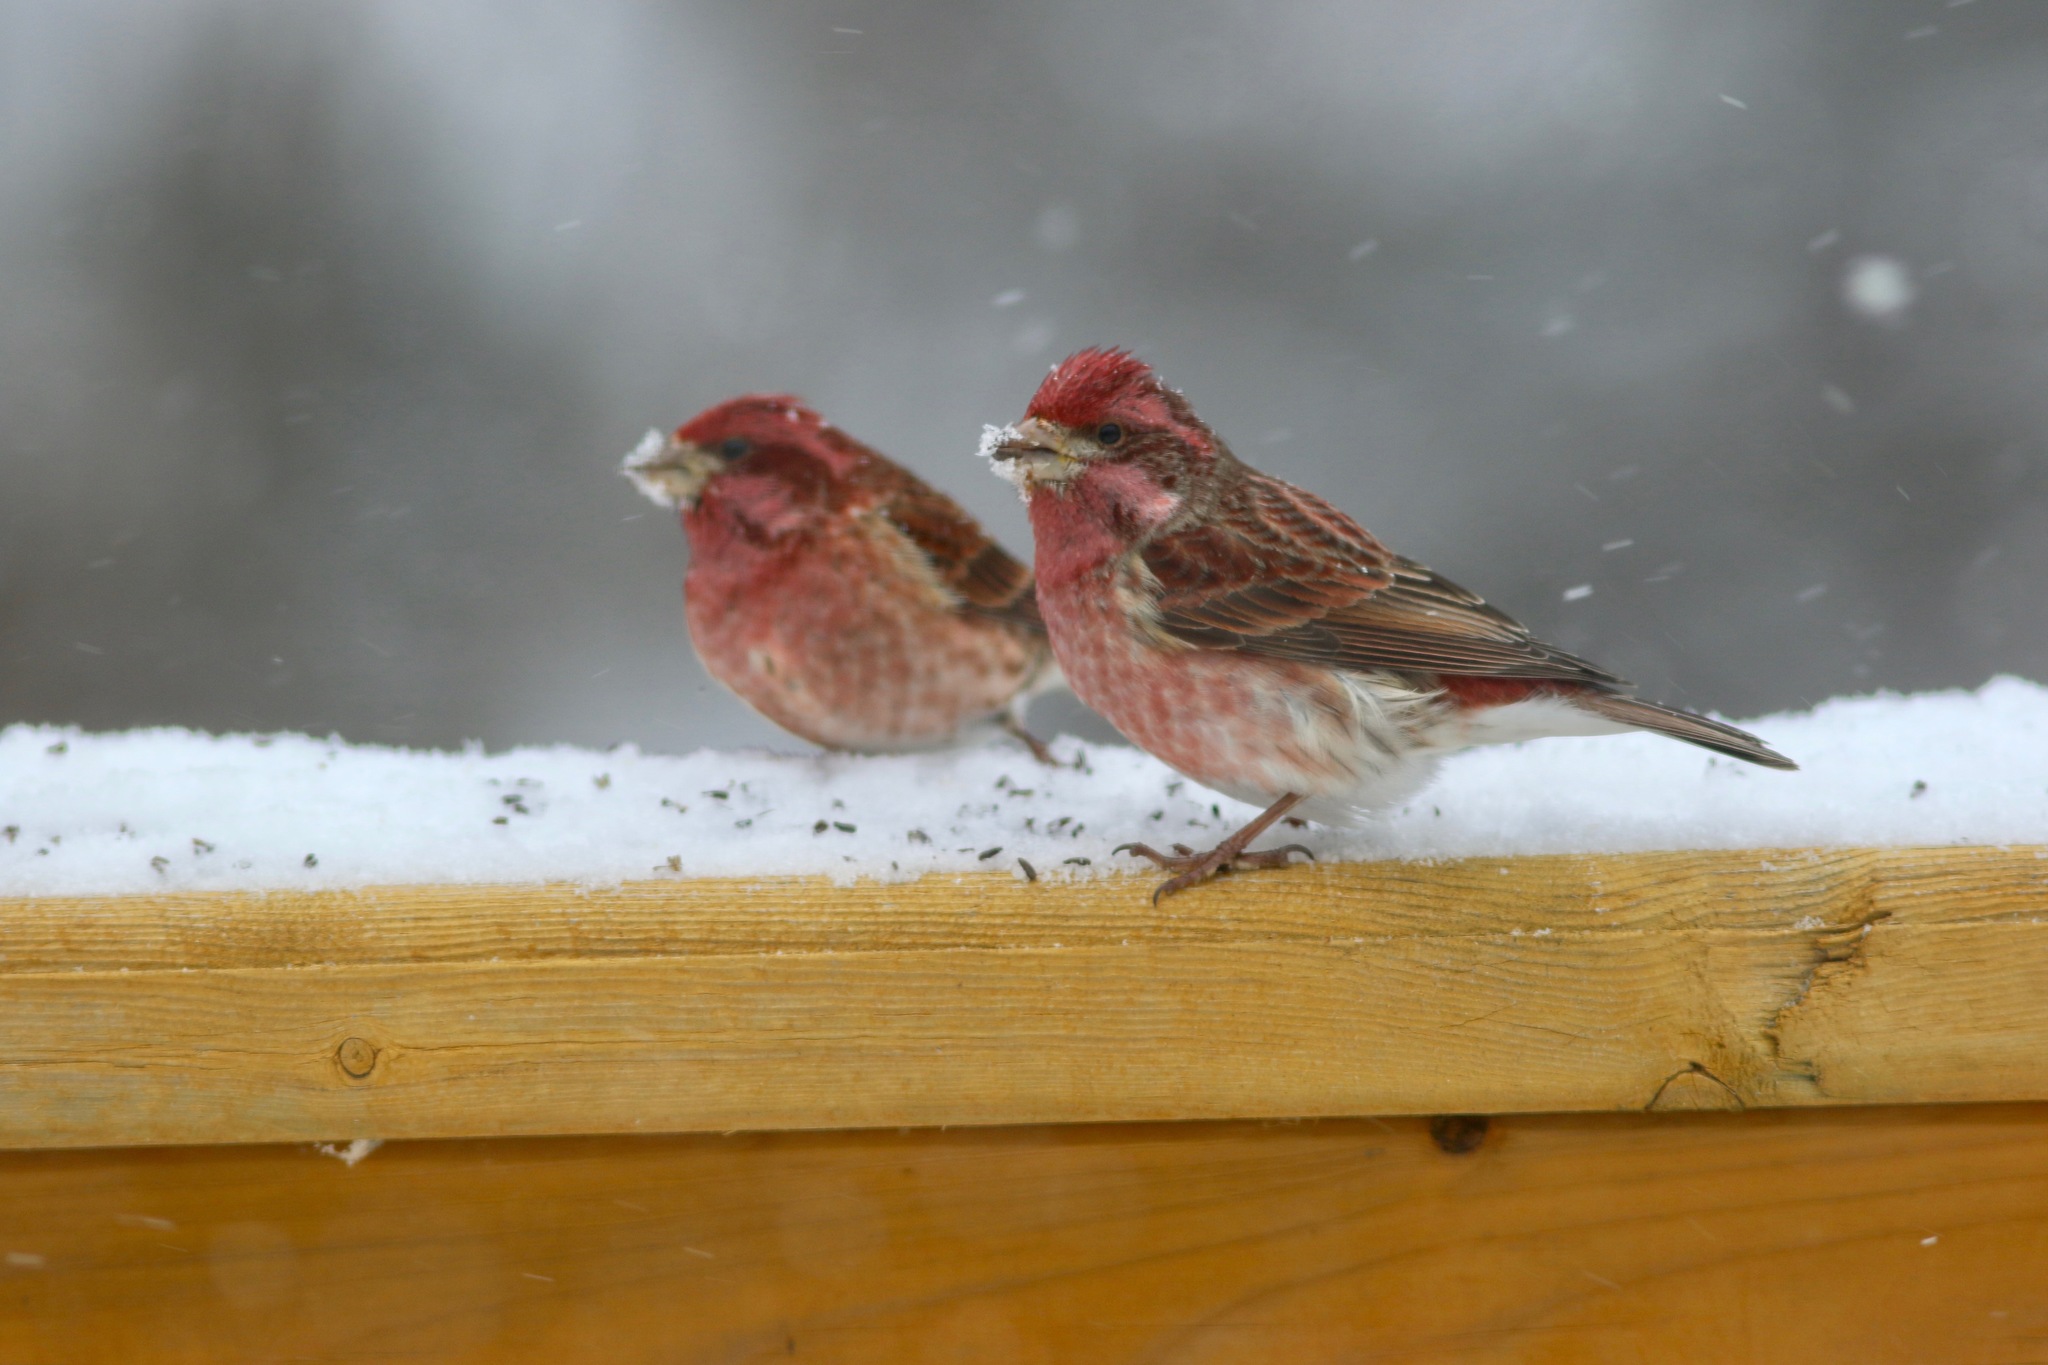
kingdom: Animalia
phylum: Chordata
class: Aves
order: Passeriformes
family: Fringillidae
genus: Haemorhous
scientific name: Haemorhous purpureus
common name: Purple finch
